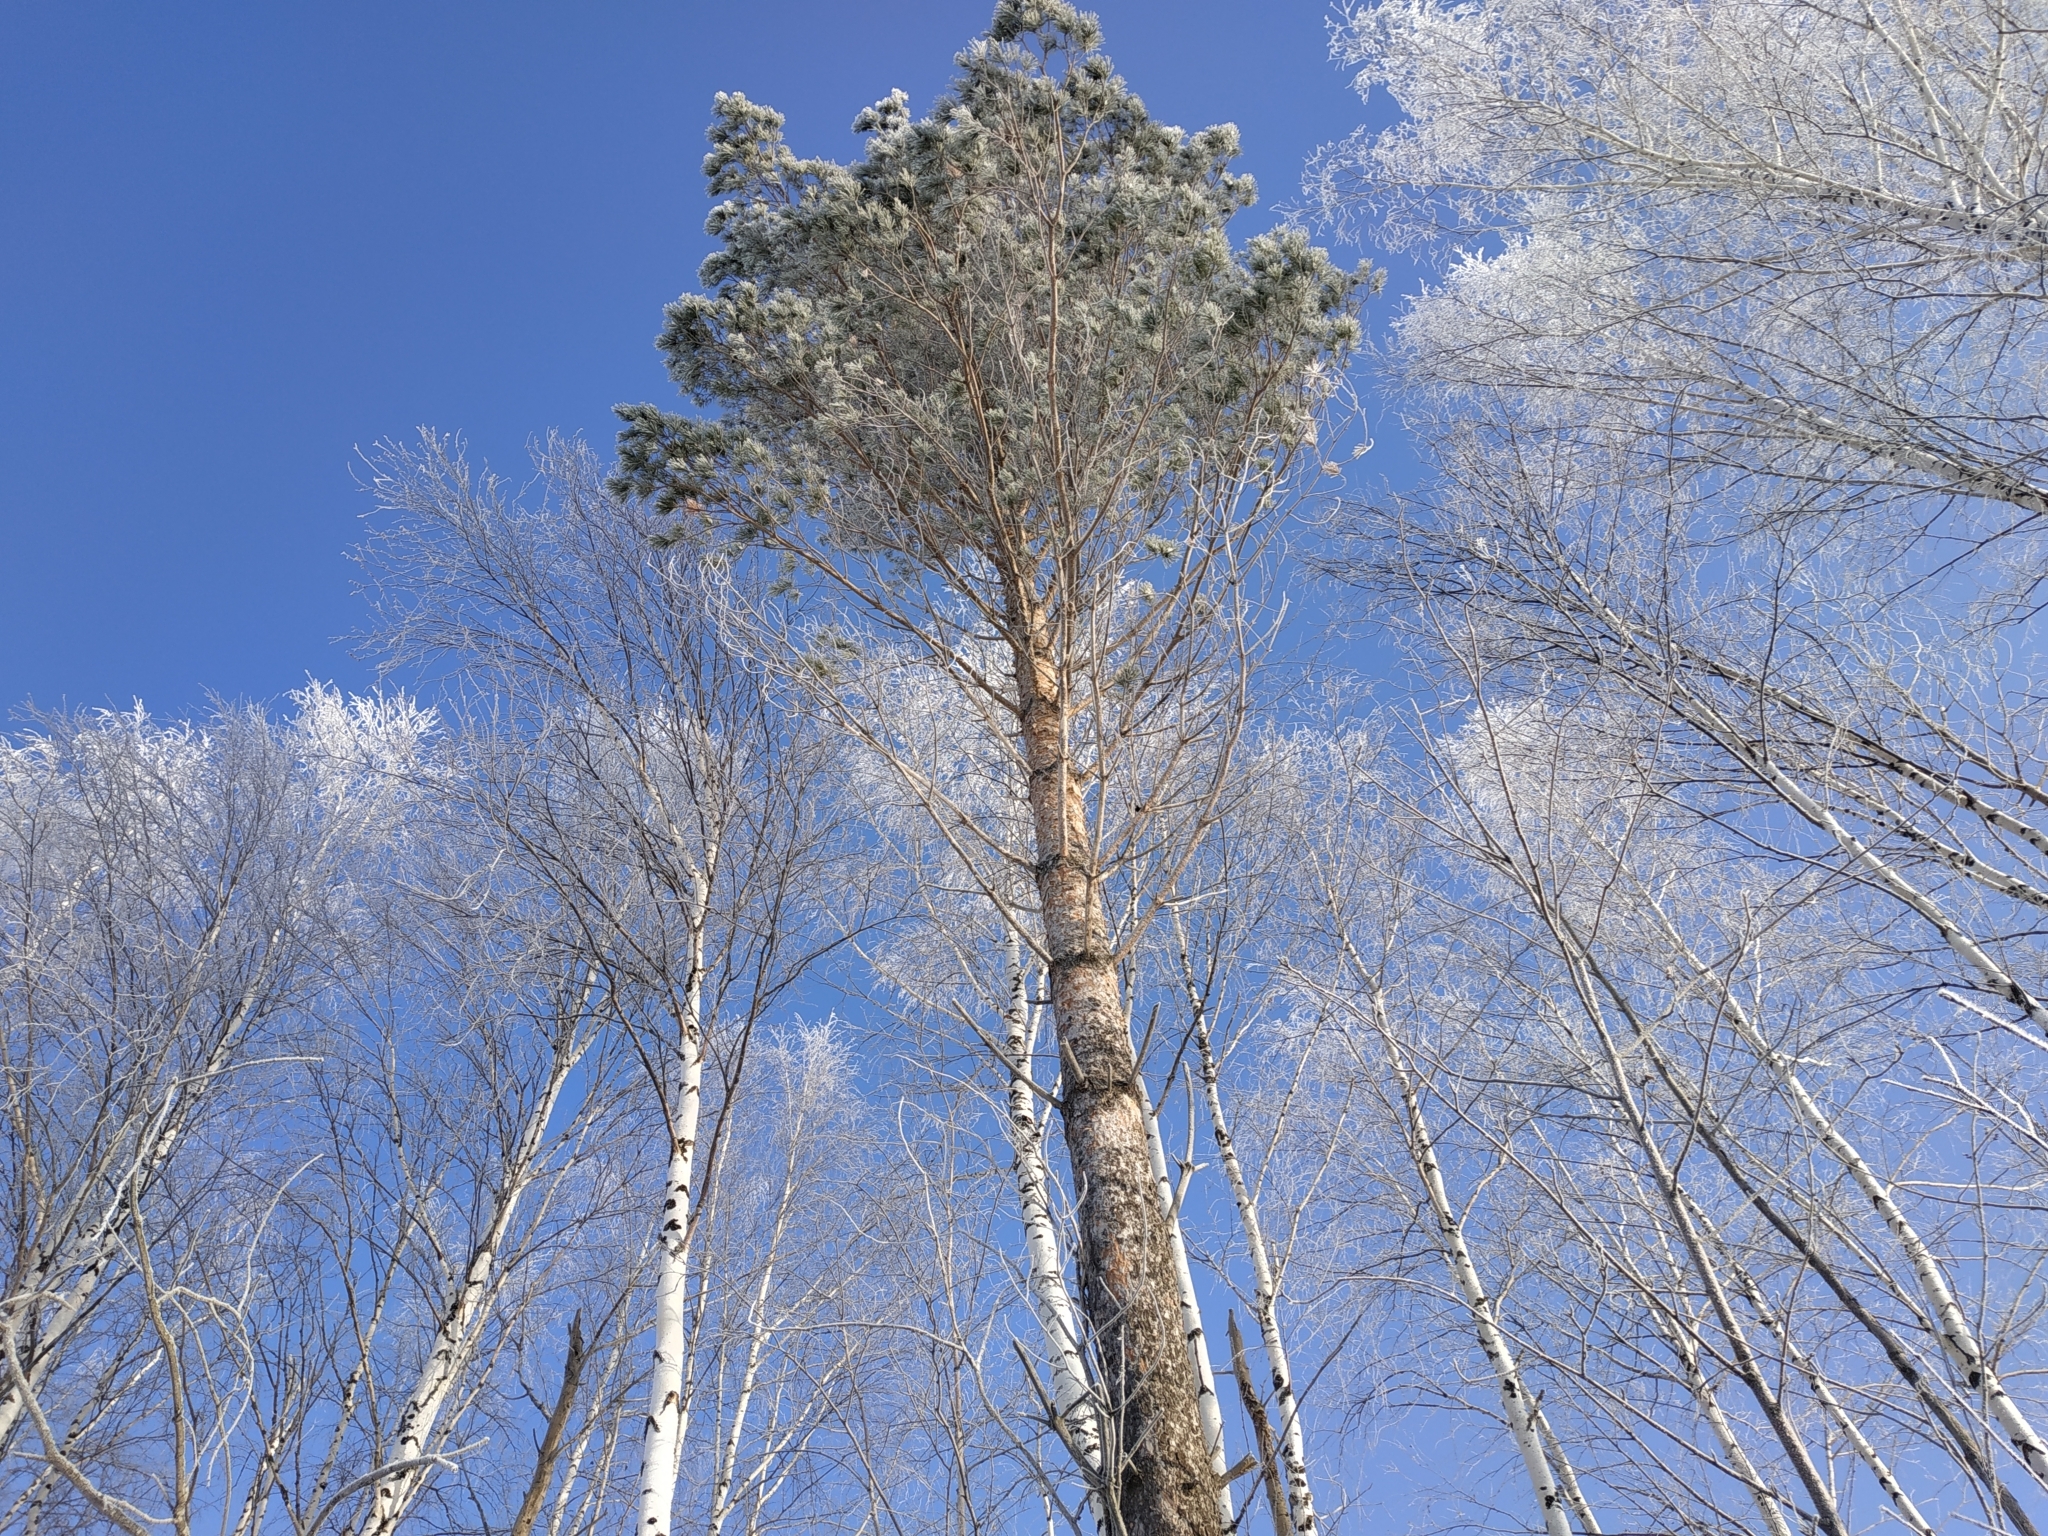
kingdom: Plantae
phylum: Tracheophyta
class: Pinopsida
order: Pinales
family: Pinaceae
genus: Pinus
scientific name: Pinus sylvestris
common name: Scots pine
